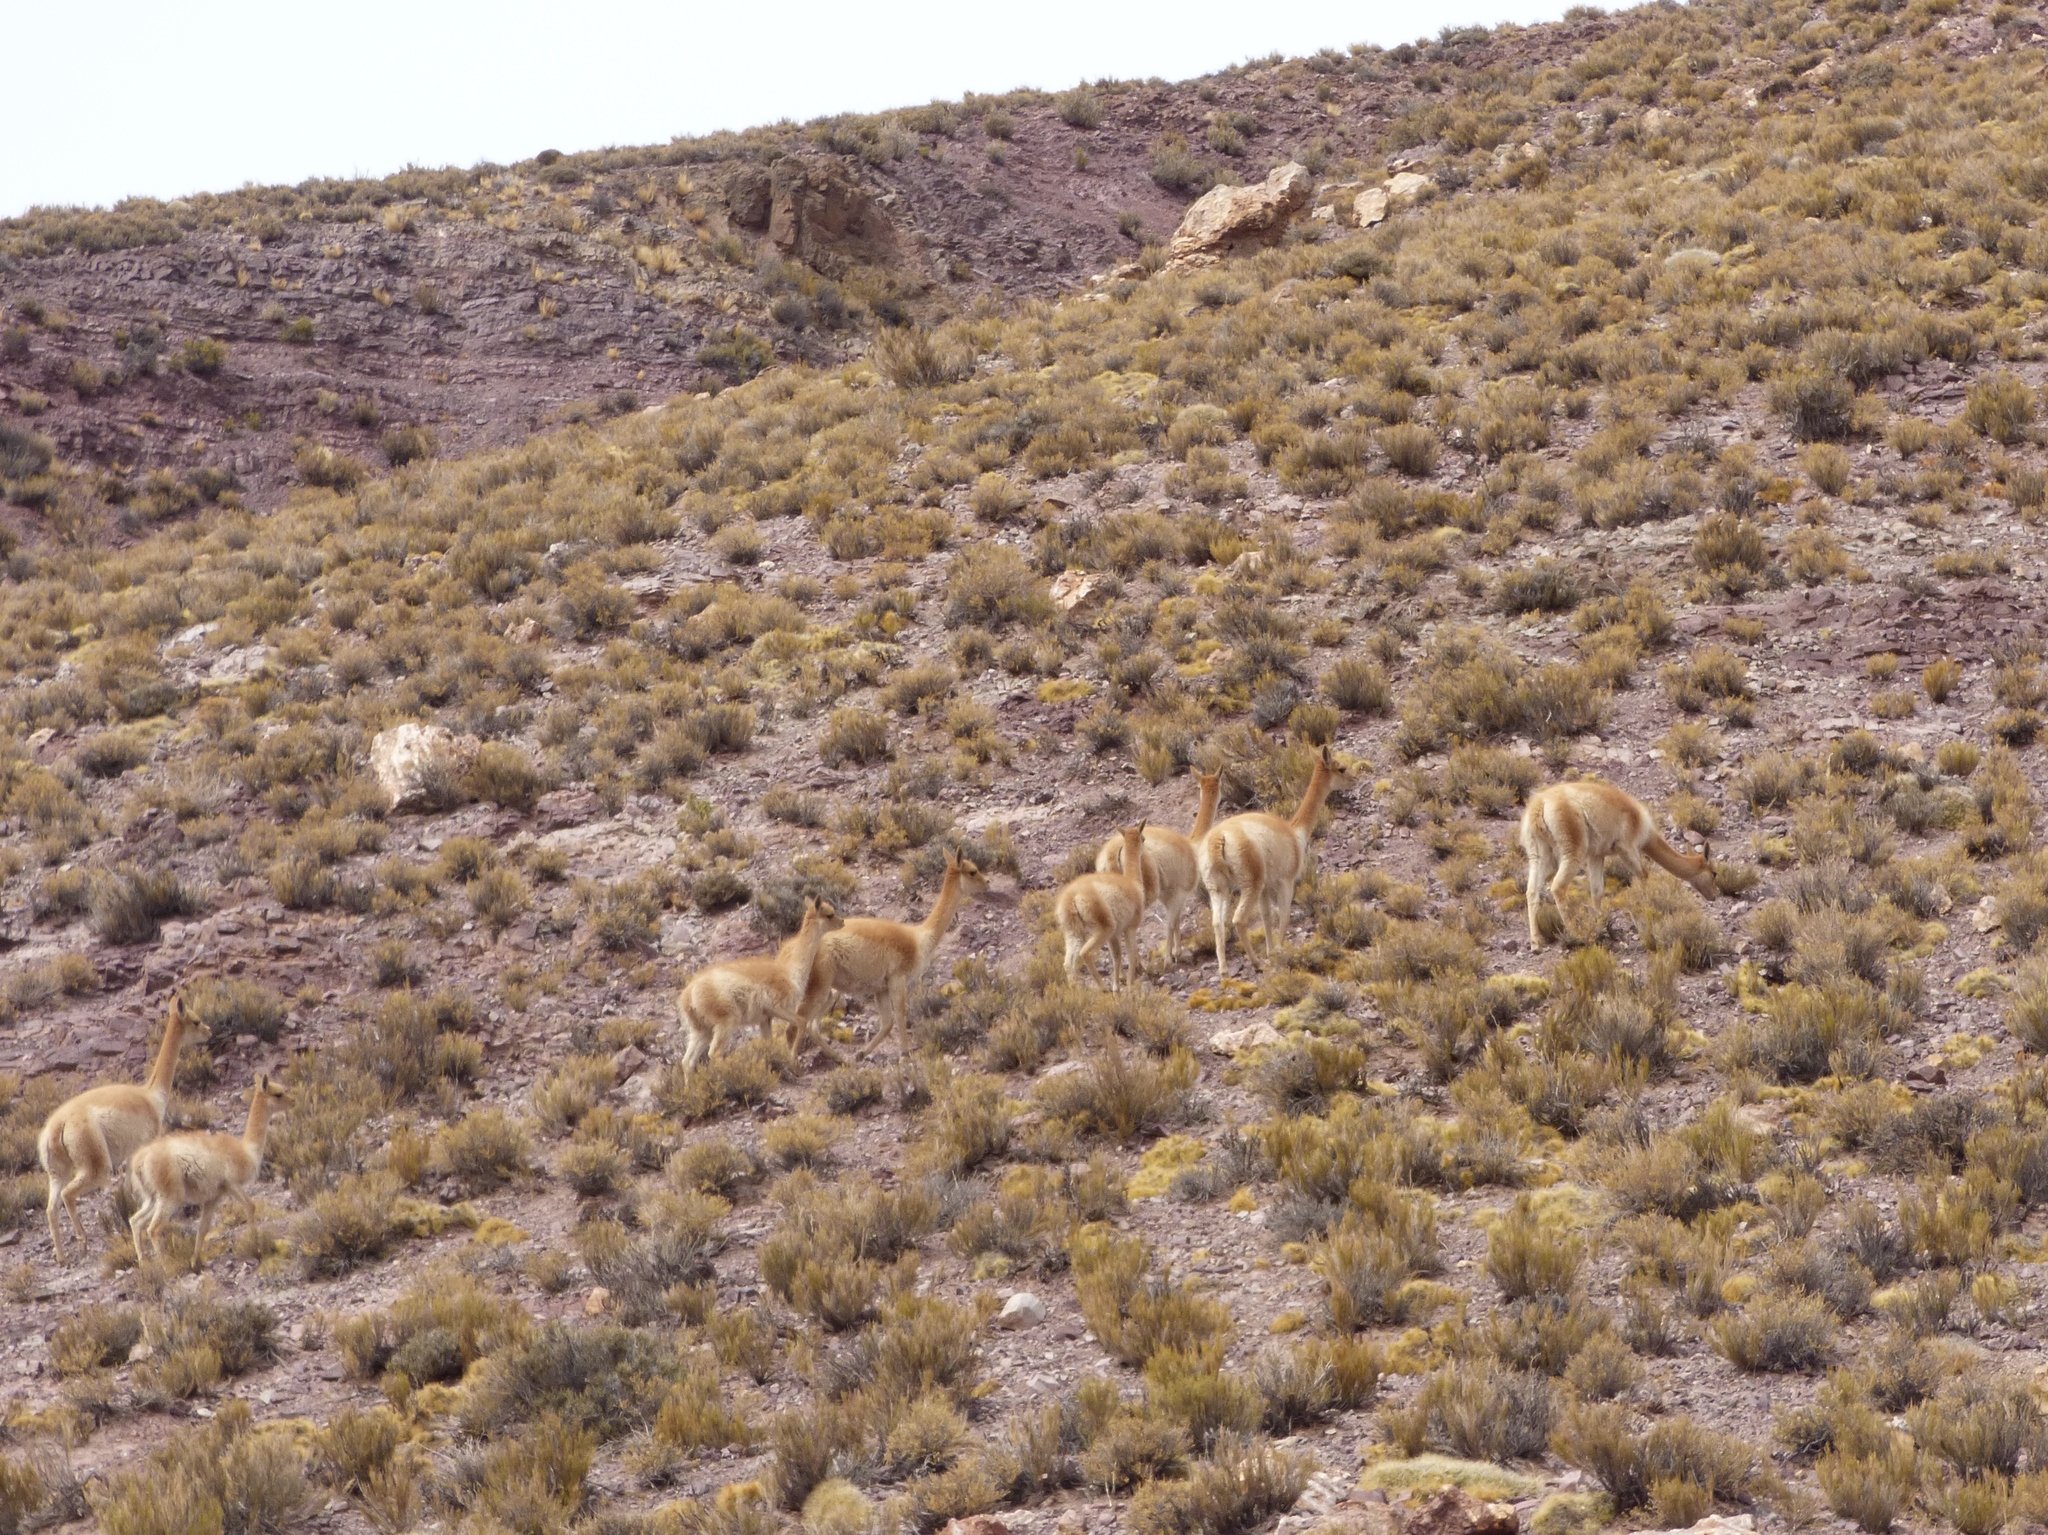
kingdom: Animalia
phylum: Chordata
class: Mammalia
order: Artiodactyla
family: Camelidae
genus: Vicugna
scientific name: Vicugna vicugna
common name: Vicugna
